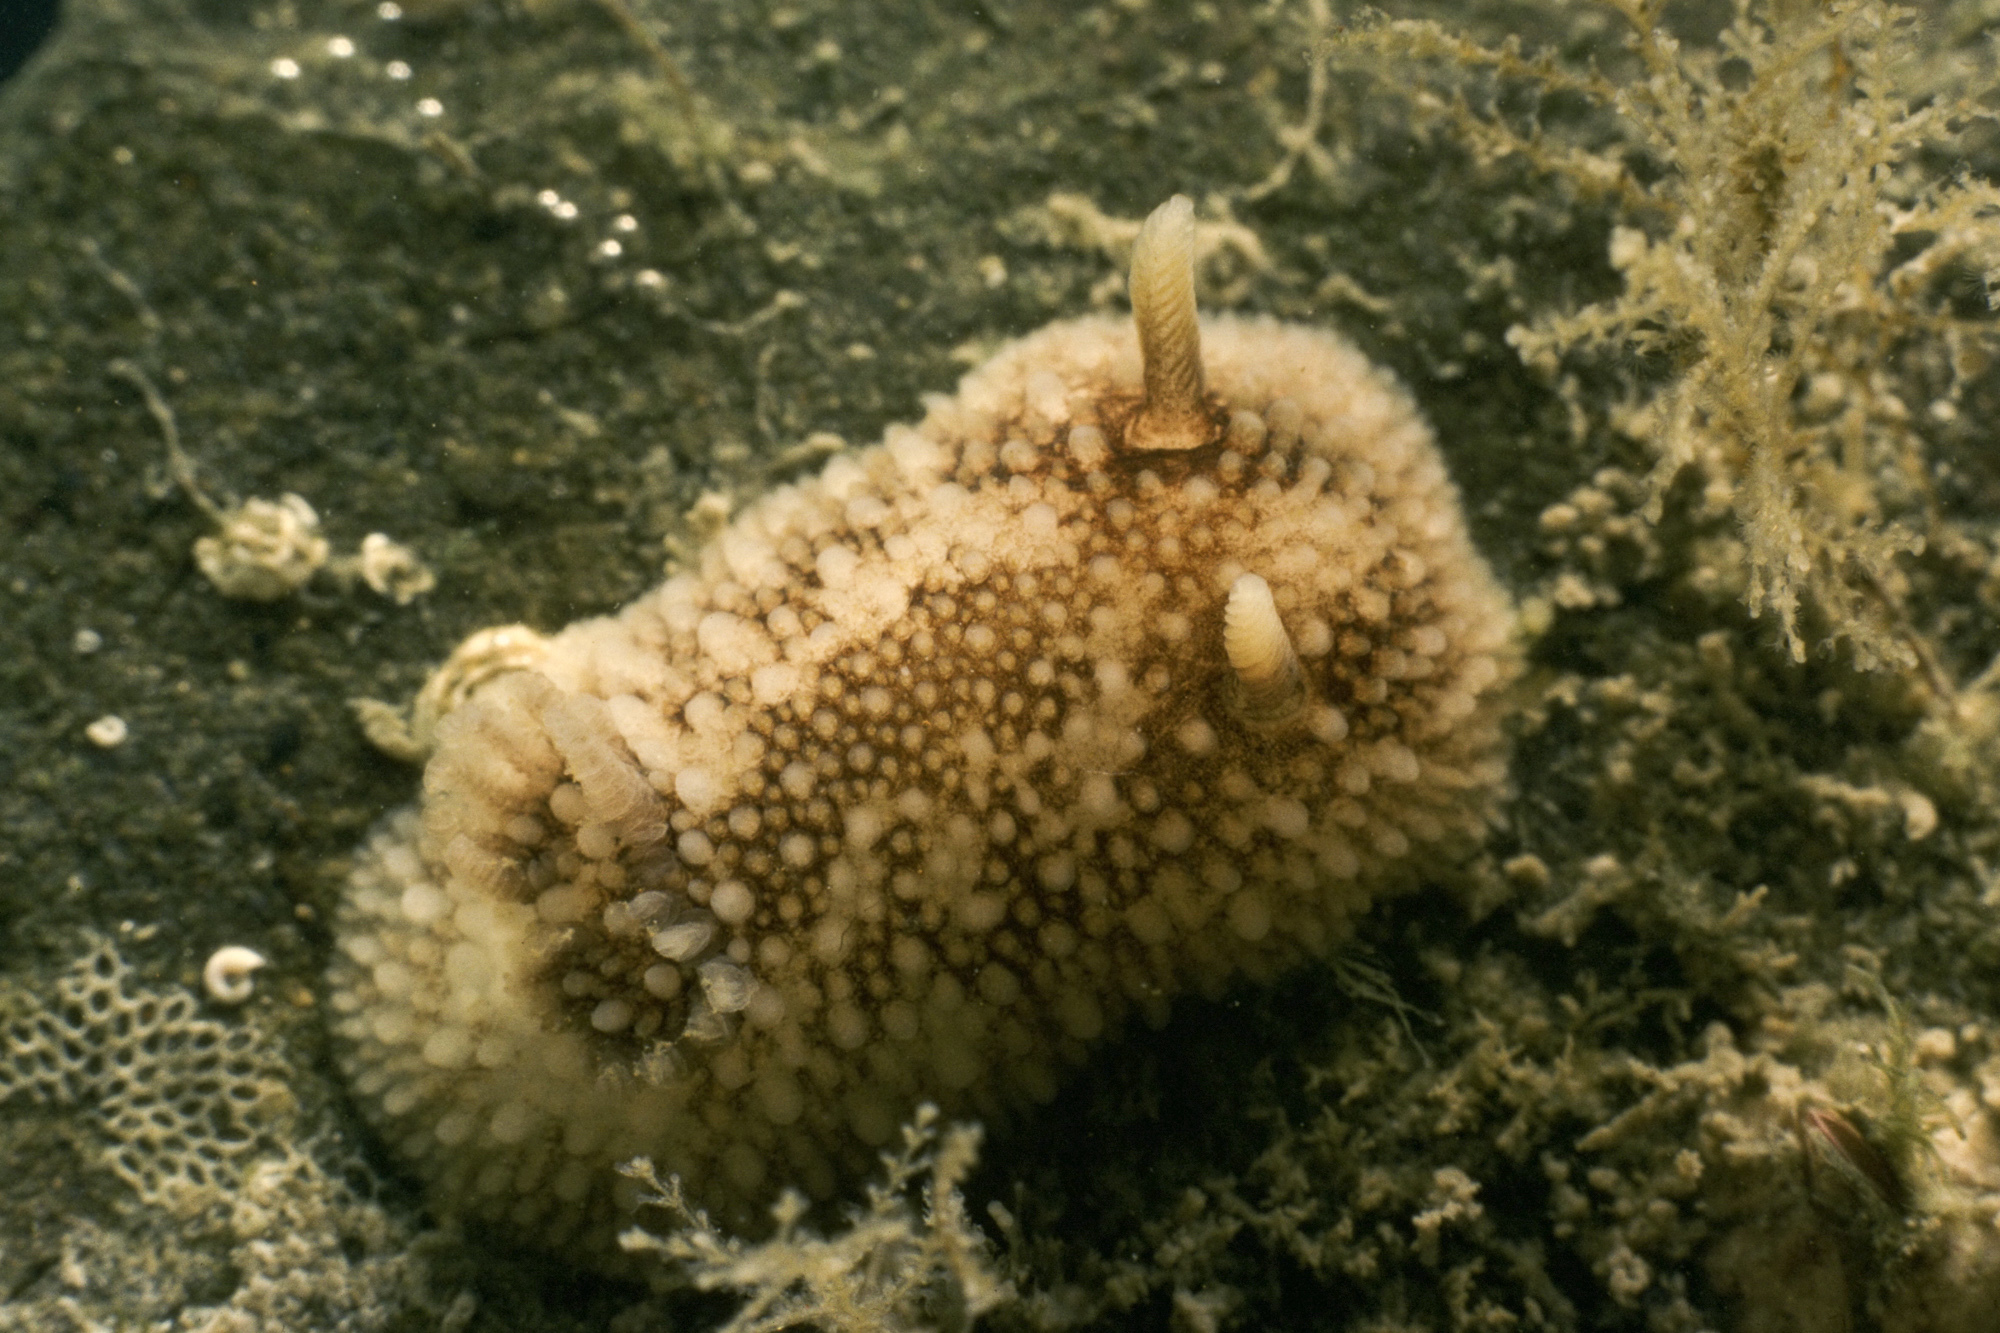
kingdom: Animalia
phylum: Mollusca
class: Gastropoda
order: Nudibranchia
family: Onchidorididae
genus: Onchidoris
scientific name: Onchidoris bilamellata
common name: Barnacle-eating onchidoris
